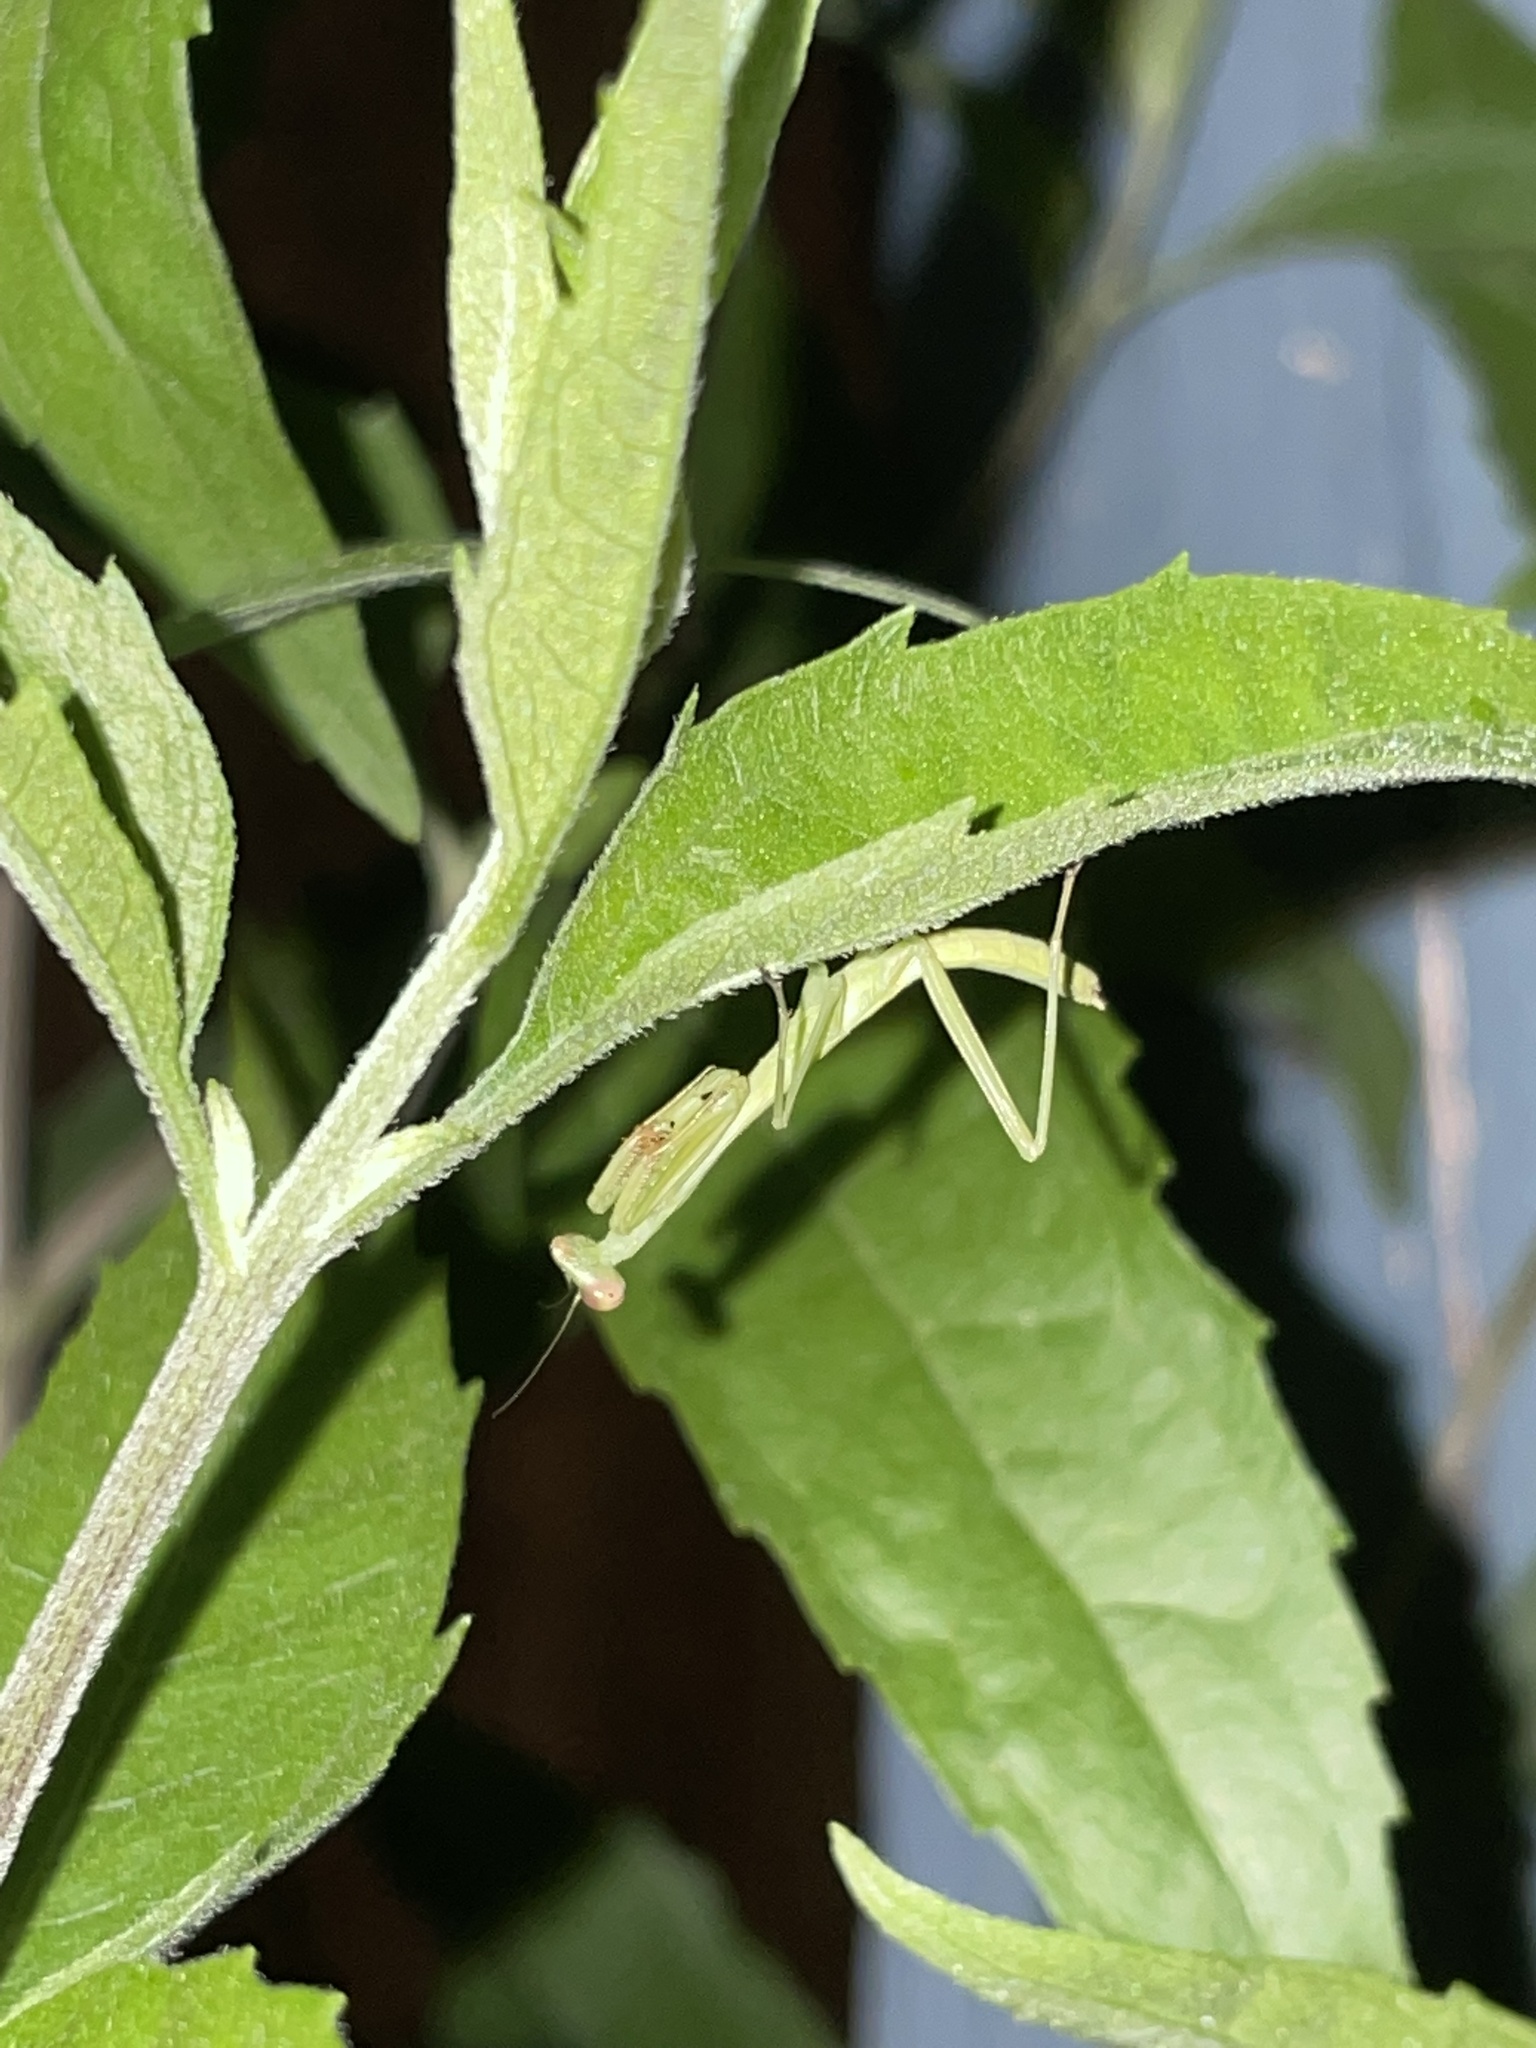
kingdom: Animalia
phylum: Arthropoda
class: Insecta
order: Mantodea
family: Mantidae
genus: Stagmomantis
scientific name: Stagmomantis carolina
